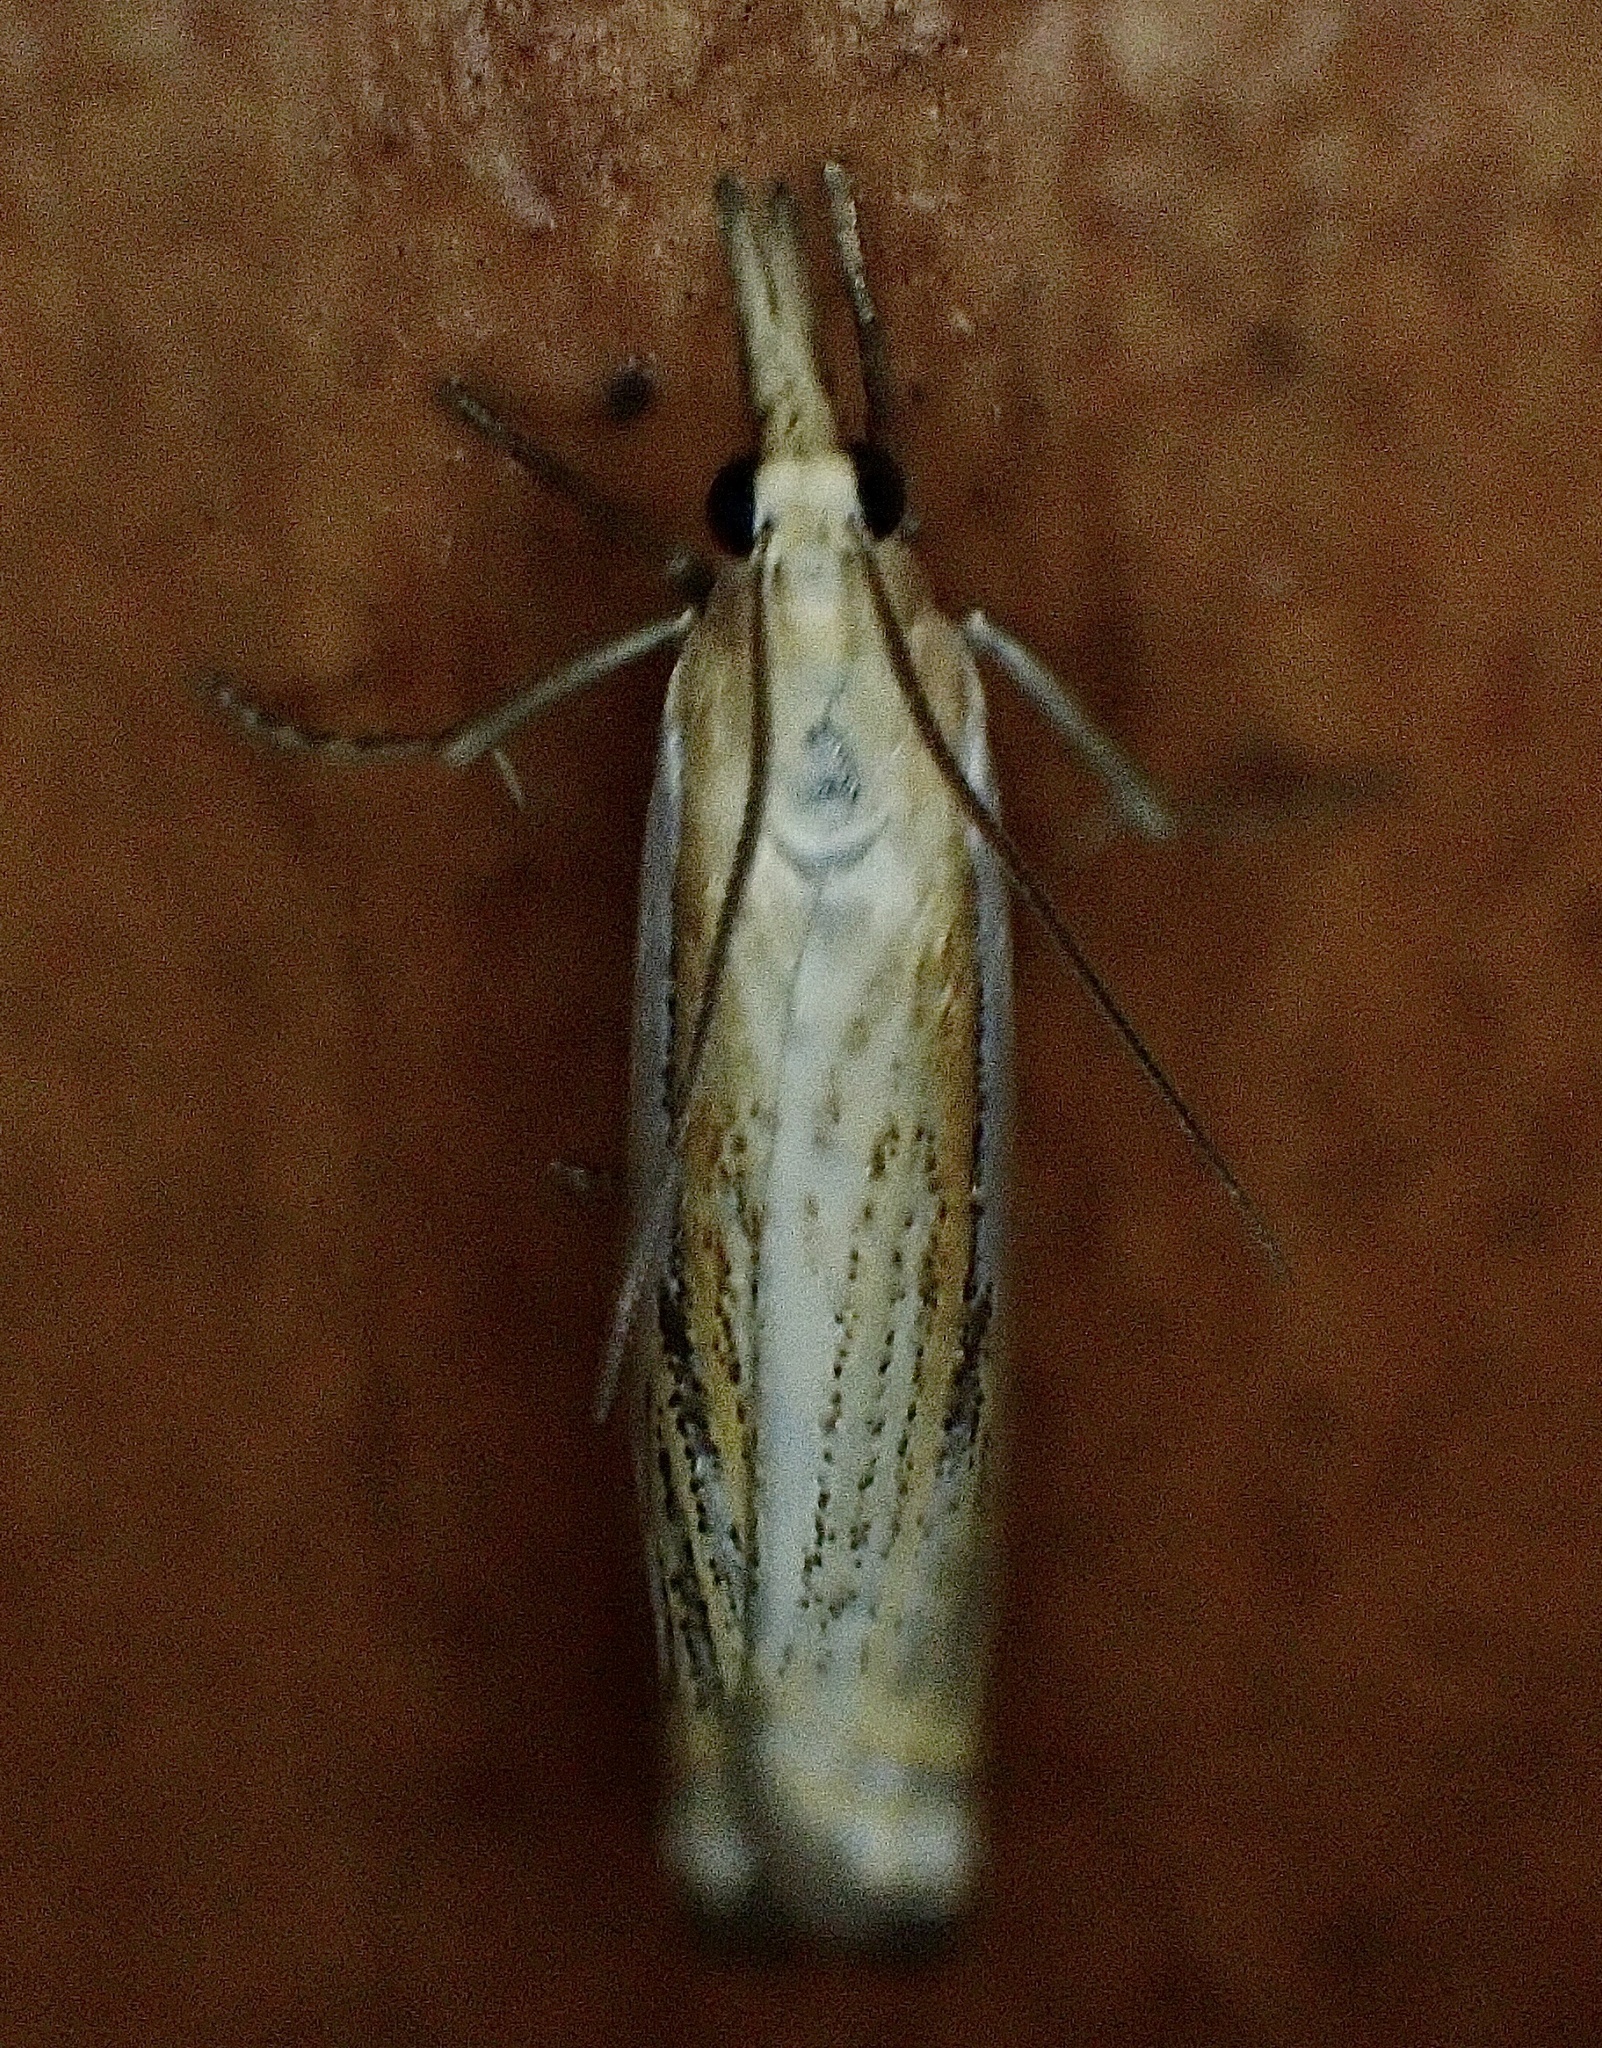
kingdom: Animalia
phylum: Arthropoda
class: Insecta
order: Lepidoptera
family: Crambidae
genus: Crambus
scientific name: Crambus saltuellus
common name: Pasture grass-veneer
